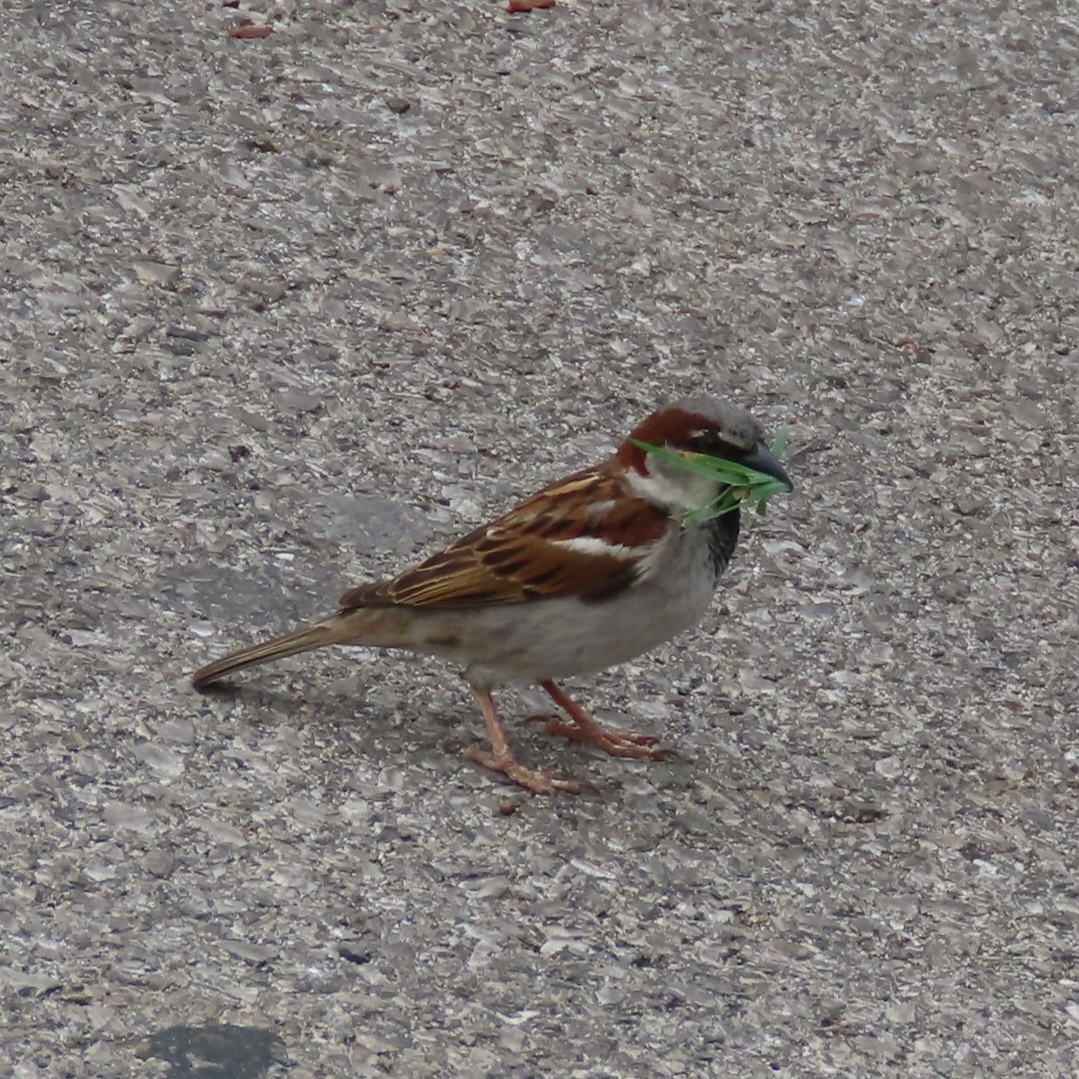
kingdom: Animalia
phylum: Chordata
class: Aves
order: Passeriformes
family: Passeridae
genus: Passer
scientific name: Passer domesticus
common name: House sparrow
